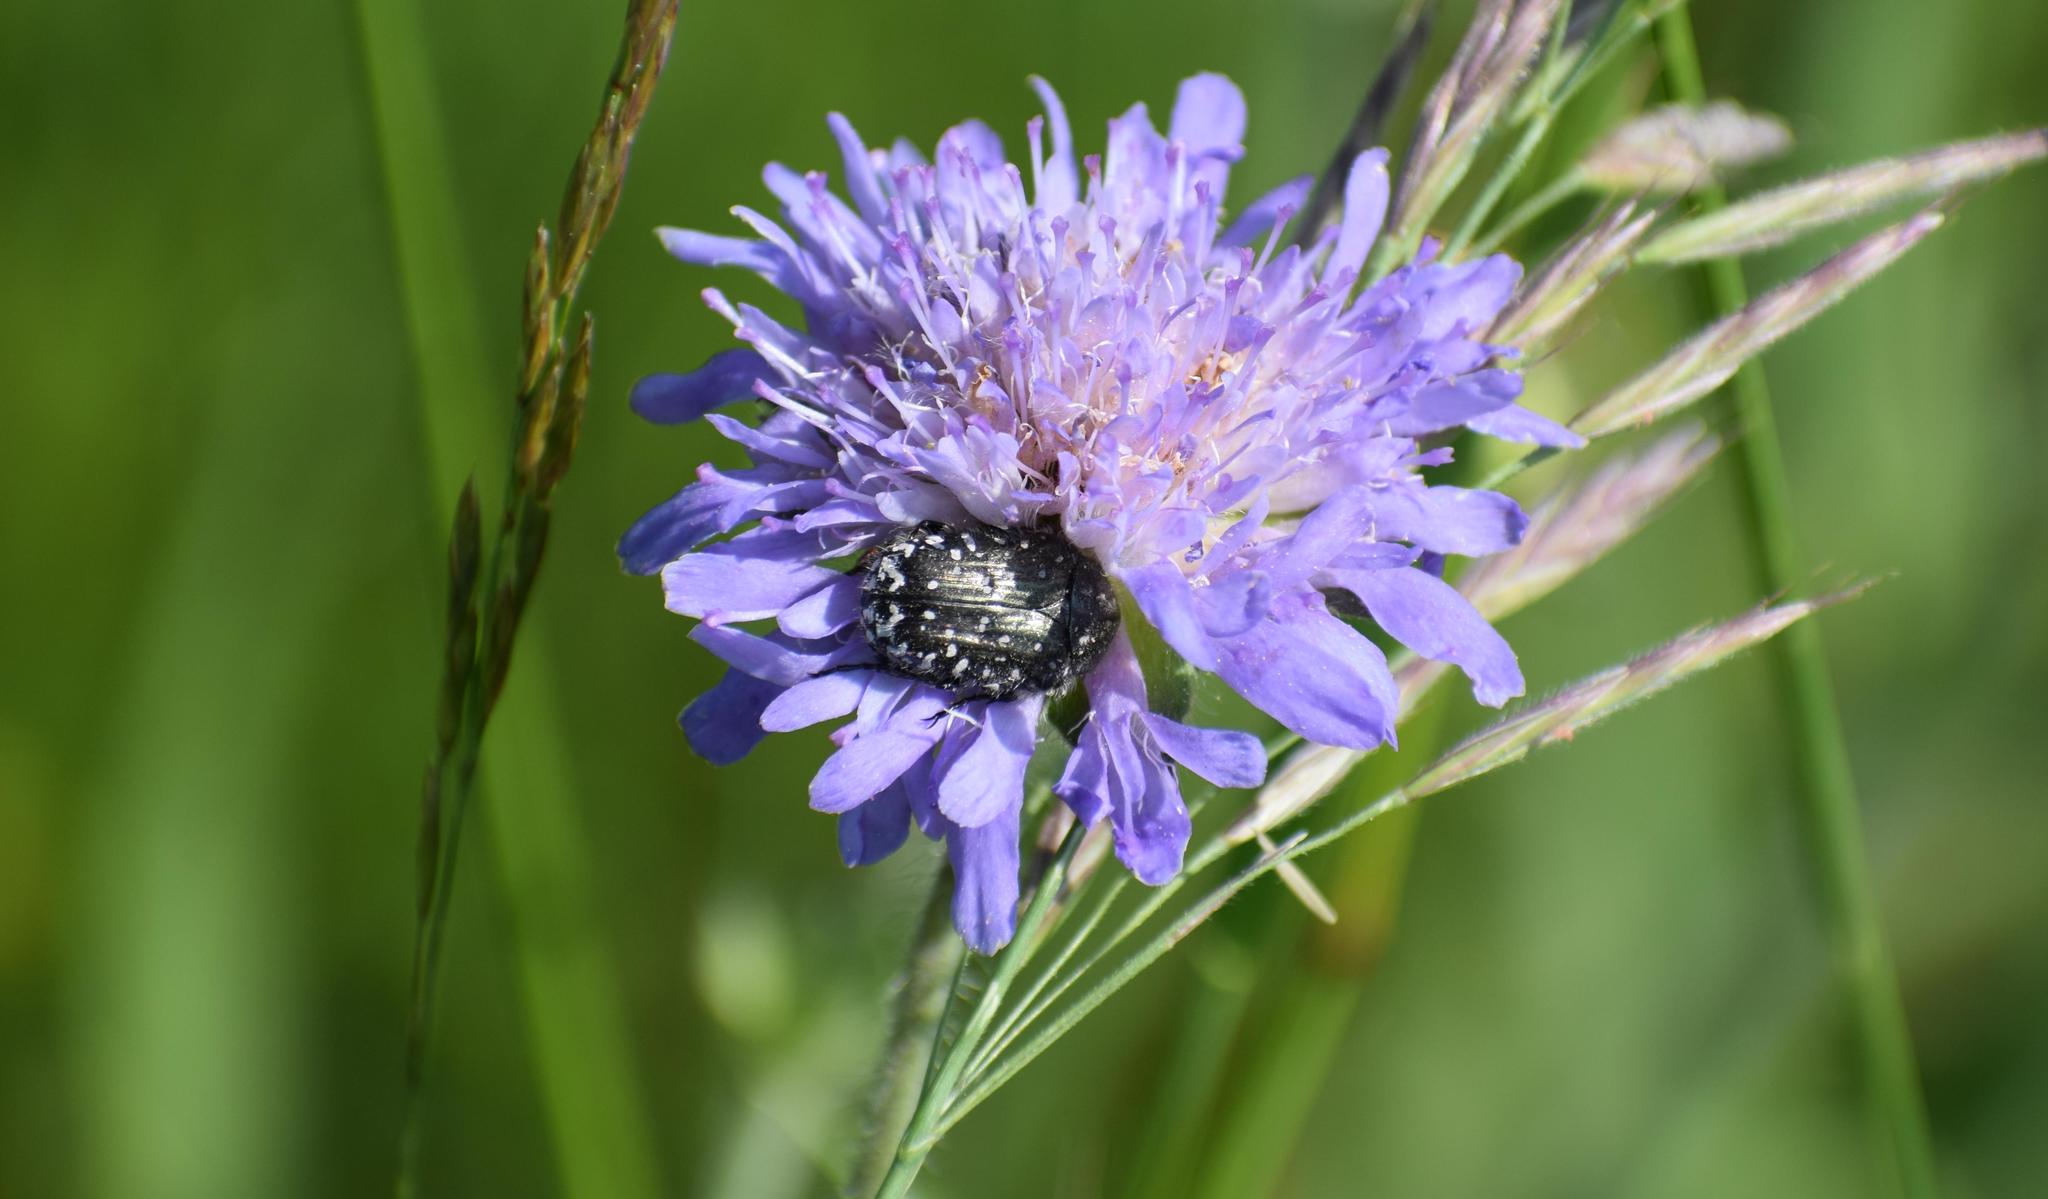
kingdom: Animalia
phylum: Arthropoda
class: Insecta
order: Coleoptera
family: Scarabaeidae
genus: Oxythyrea
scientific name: Oxythyrea funesta
